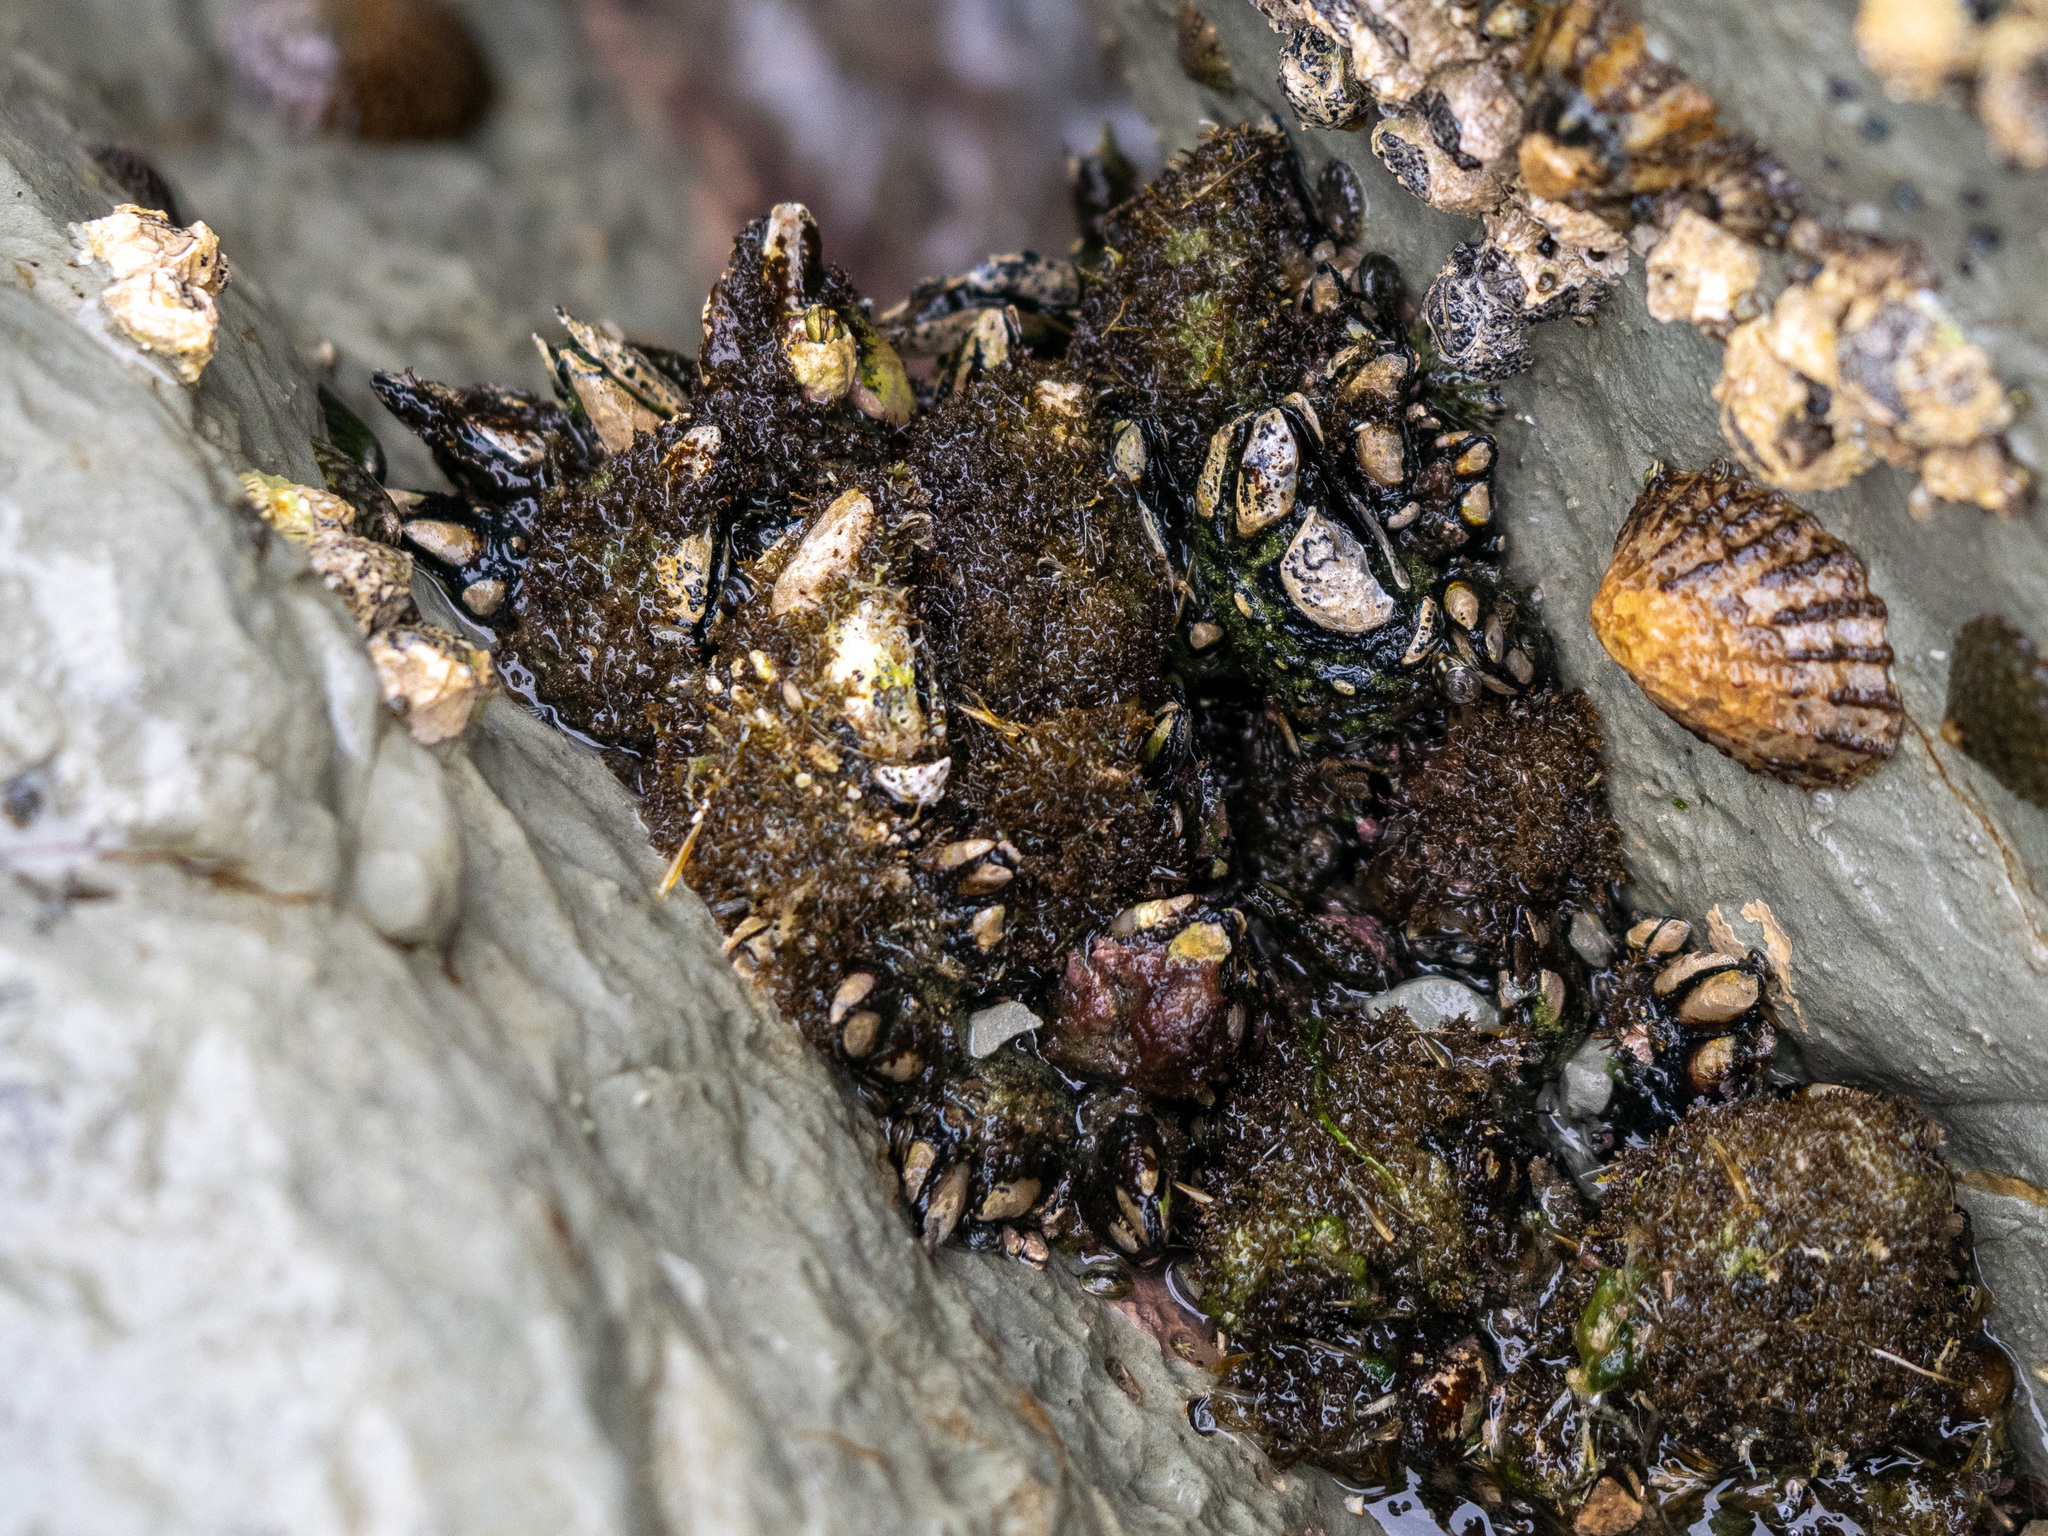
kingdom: Animalia
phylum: Arthropoda
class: Maxillopoda
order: Pedunculata
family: Calanticidae
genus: Calantica
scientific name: Calantica spinosa
